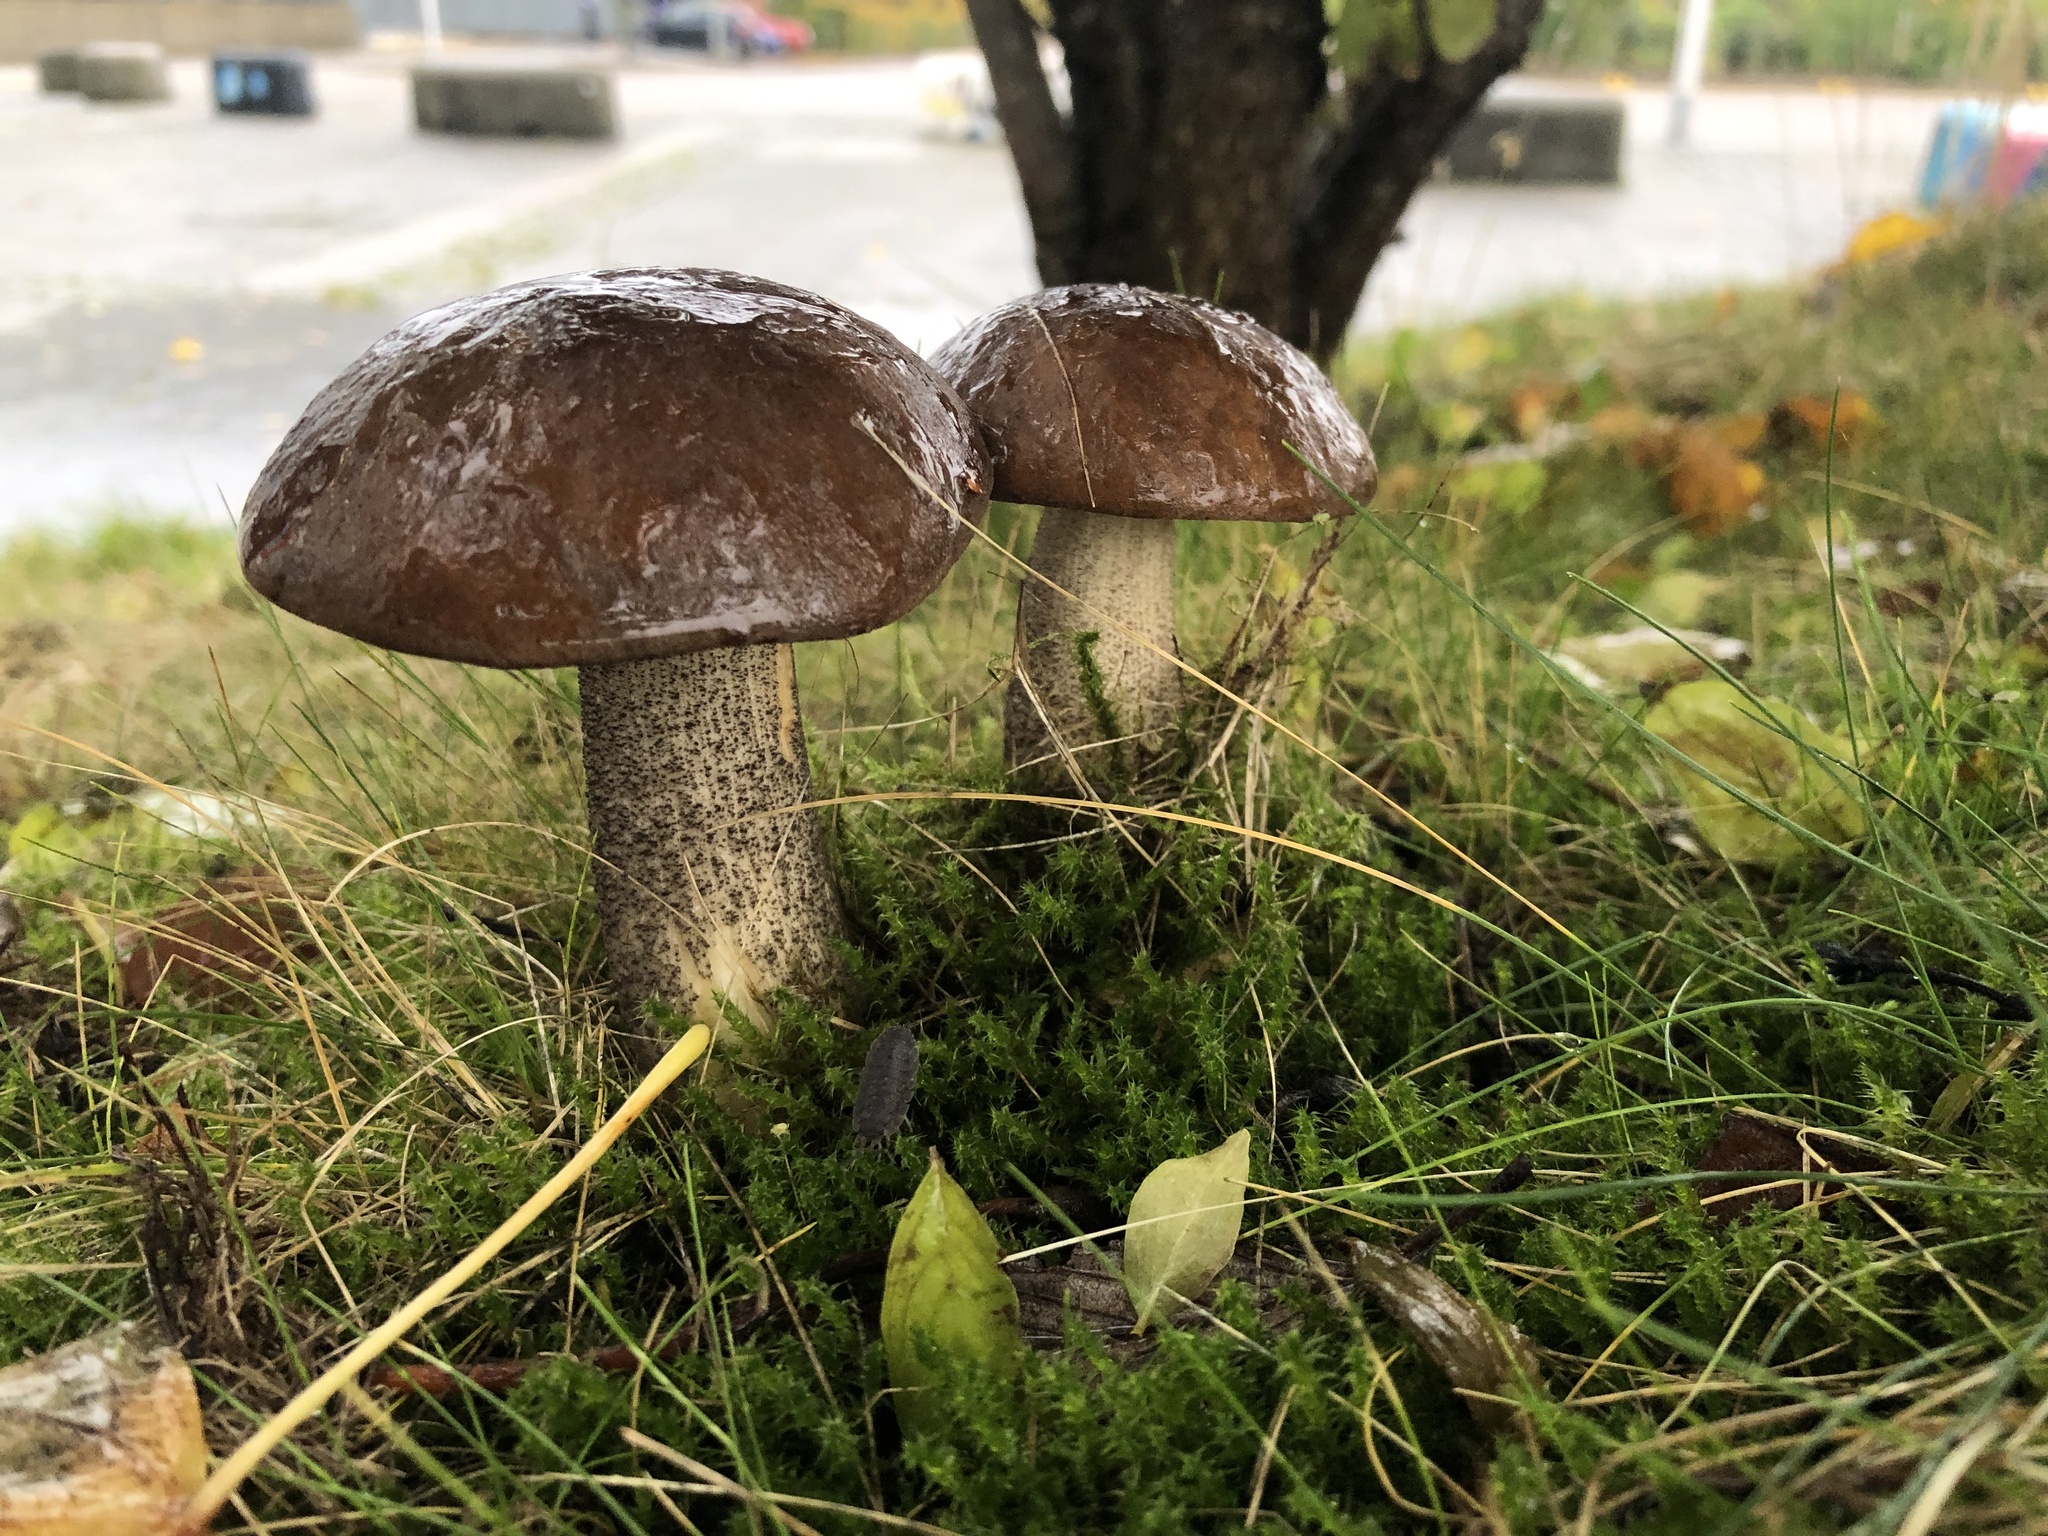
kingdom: Fungi
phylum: Basidiomycota
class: Agaricomycetes
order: Boletales
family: Boletaceae
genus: Leccinum
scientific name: Leccinum scabrum
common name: Blushing bolete
